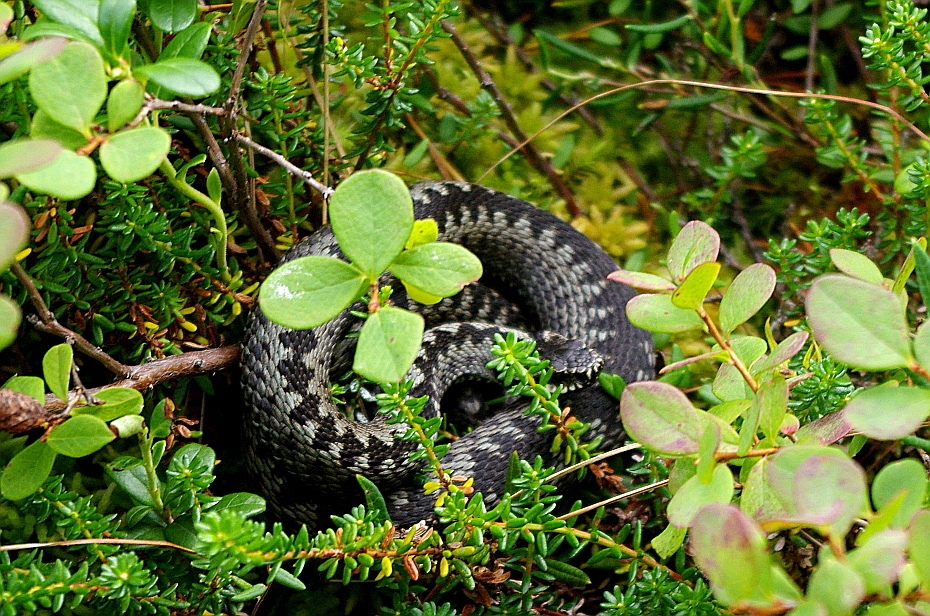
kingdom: Plantae
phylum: Tracheophyta
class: Magnoliopsida
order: Ericales
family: Ericaceae
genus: Vaccinium
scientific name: Vaccinium vitis-idaea
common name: Cowberry
